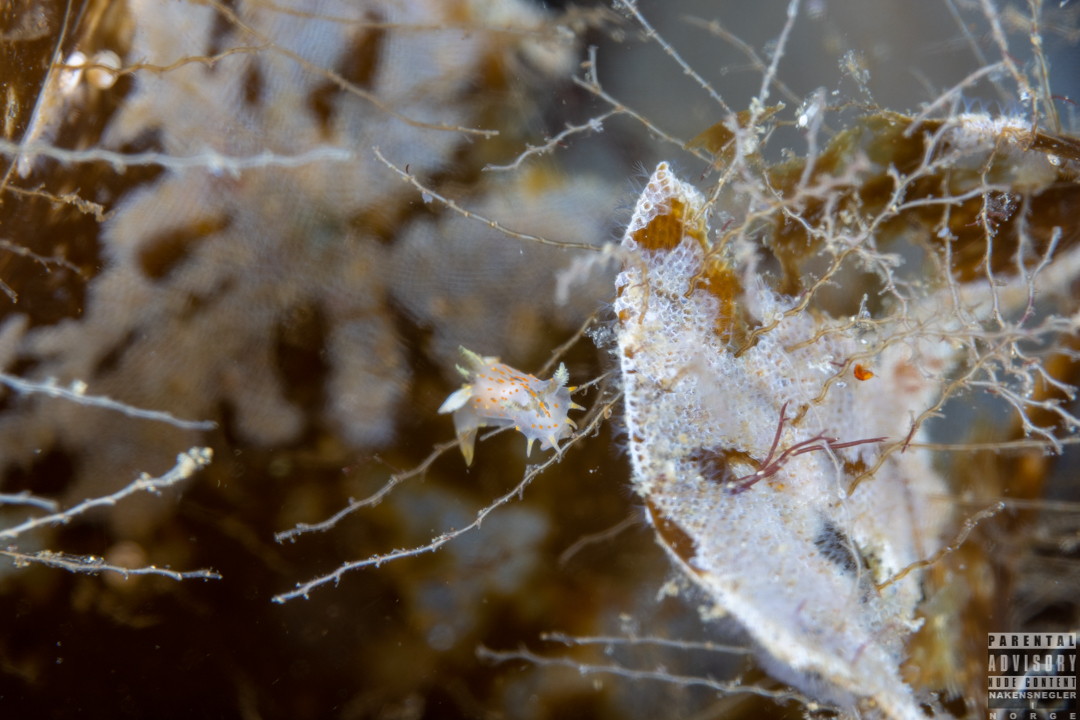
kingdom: Animalia
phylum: Mollusca
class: Gastropoda
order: Nudibranchia
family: Polyceridae
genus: Polycera
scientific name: Polycera quadrilineata
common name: Four-striped polycera
